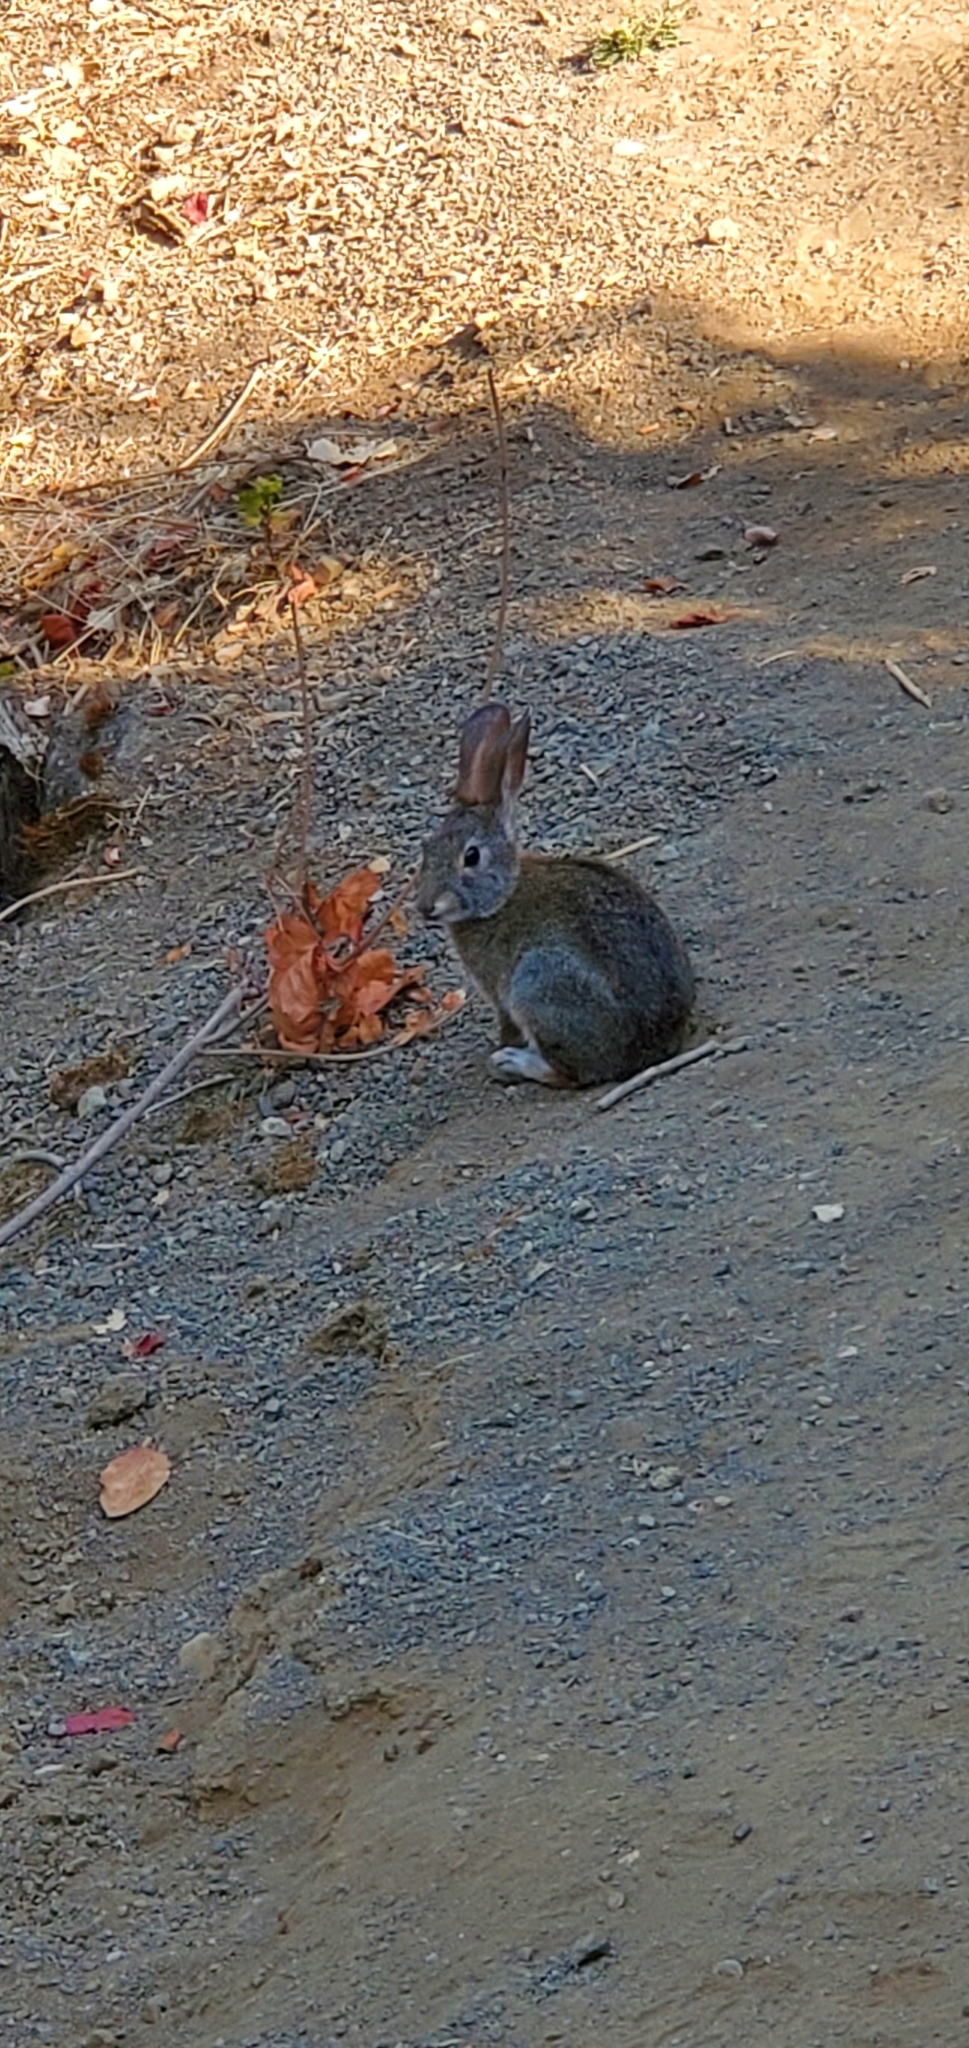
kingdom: Animalia
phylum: Chordata
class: Mammalia
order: Lagomorpha
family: Leporidae
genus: Sylvilagus
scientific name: Sylvilagus bachmani
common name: Brush rabbit
